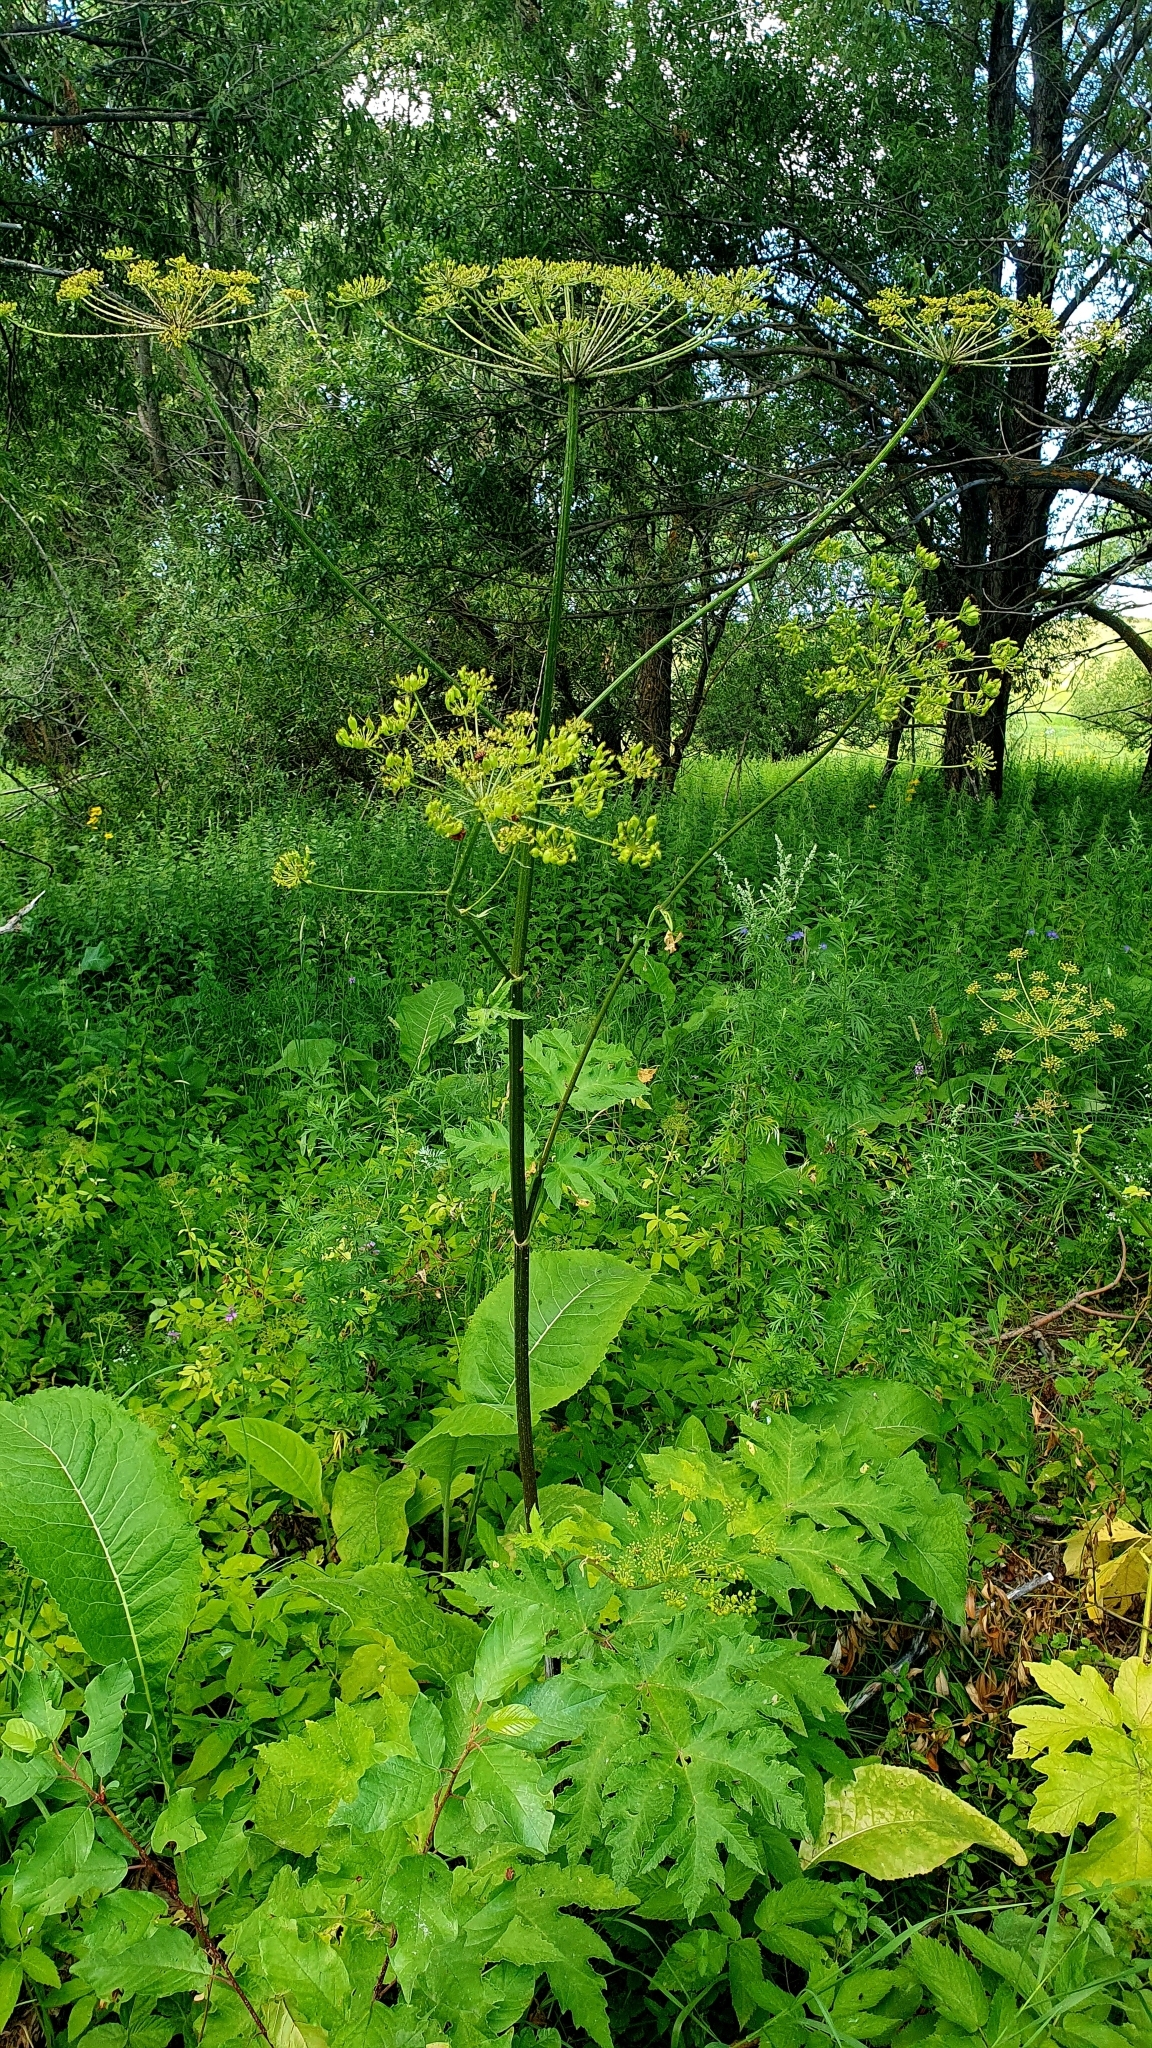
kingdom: Plantae
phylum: Tracheophyta
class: Magnoliopsida
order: Apiales
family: Apiaceae
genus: Heracleum
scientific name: Heracleum sphondylium
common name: Hogweed
